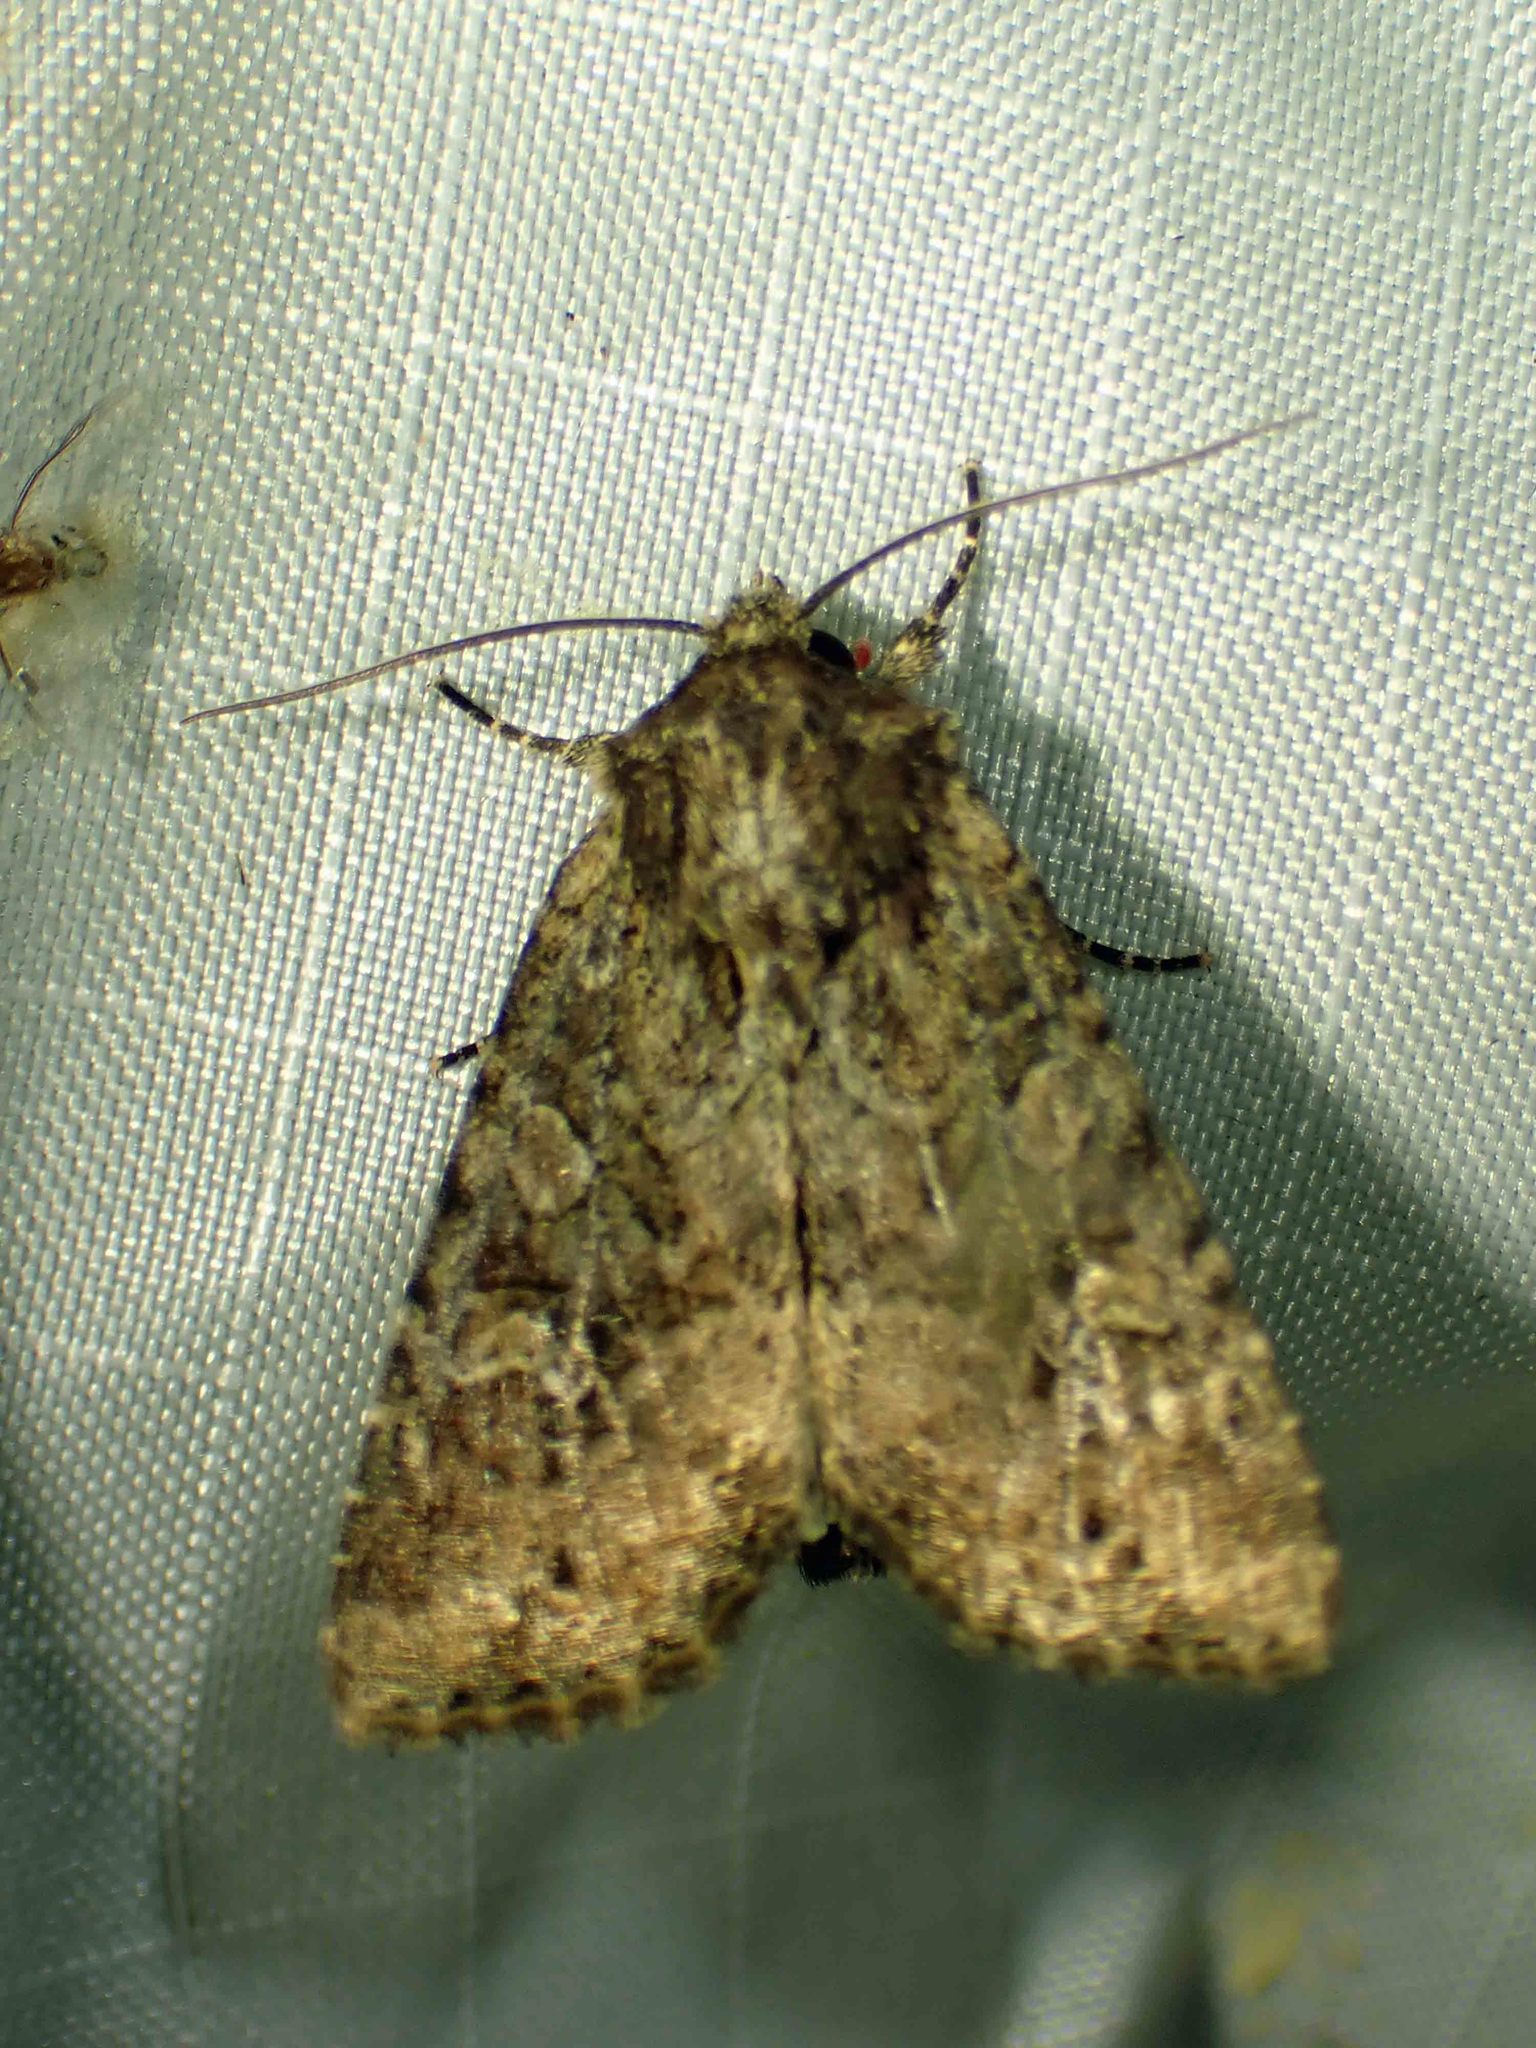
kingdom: Animalia
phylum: Arthropoda
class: Insecta
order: Lepidoptera
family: Noctuidae
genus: Apamea
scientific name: Apamea unanimis
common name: Small clouded brindle
